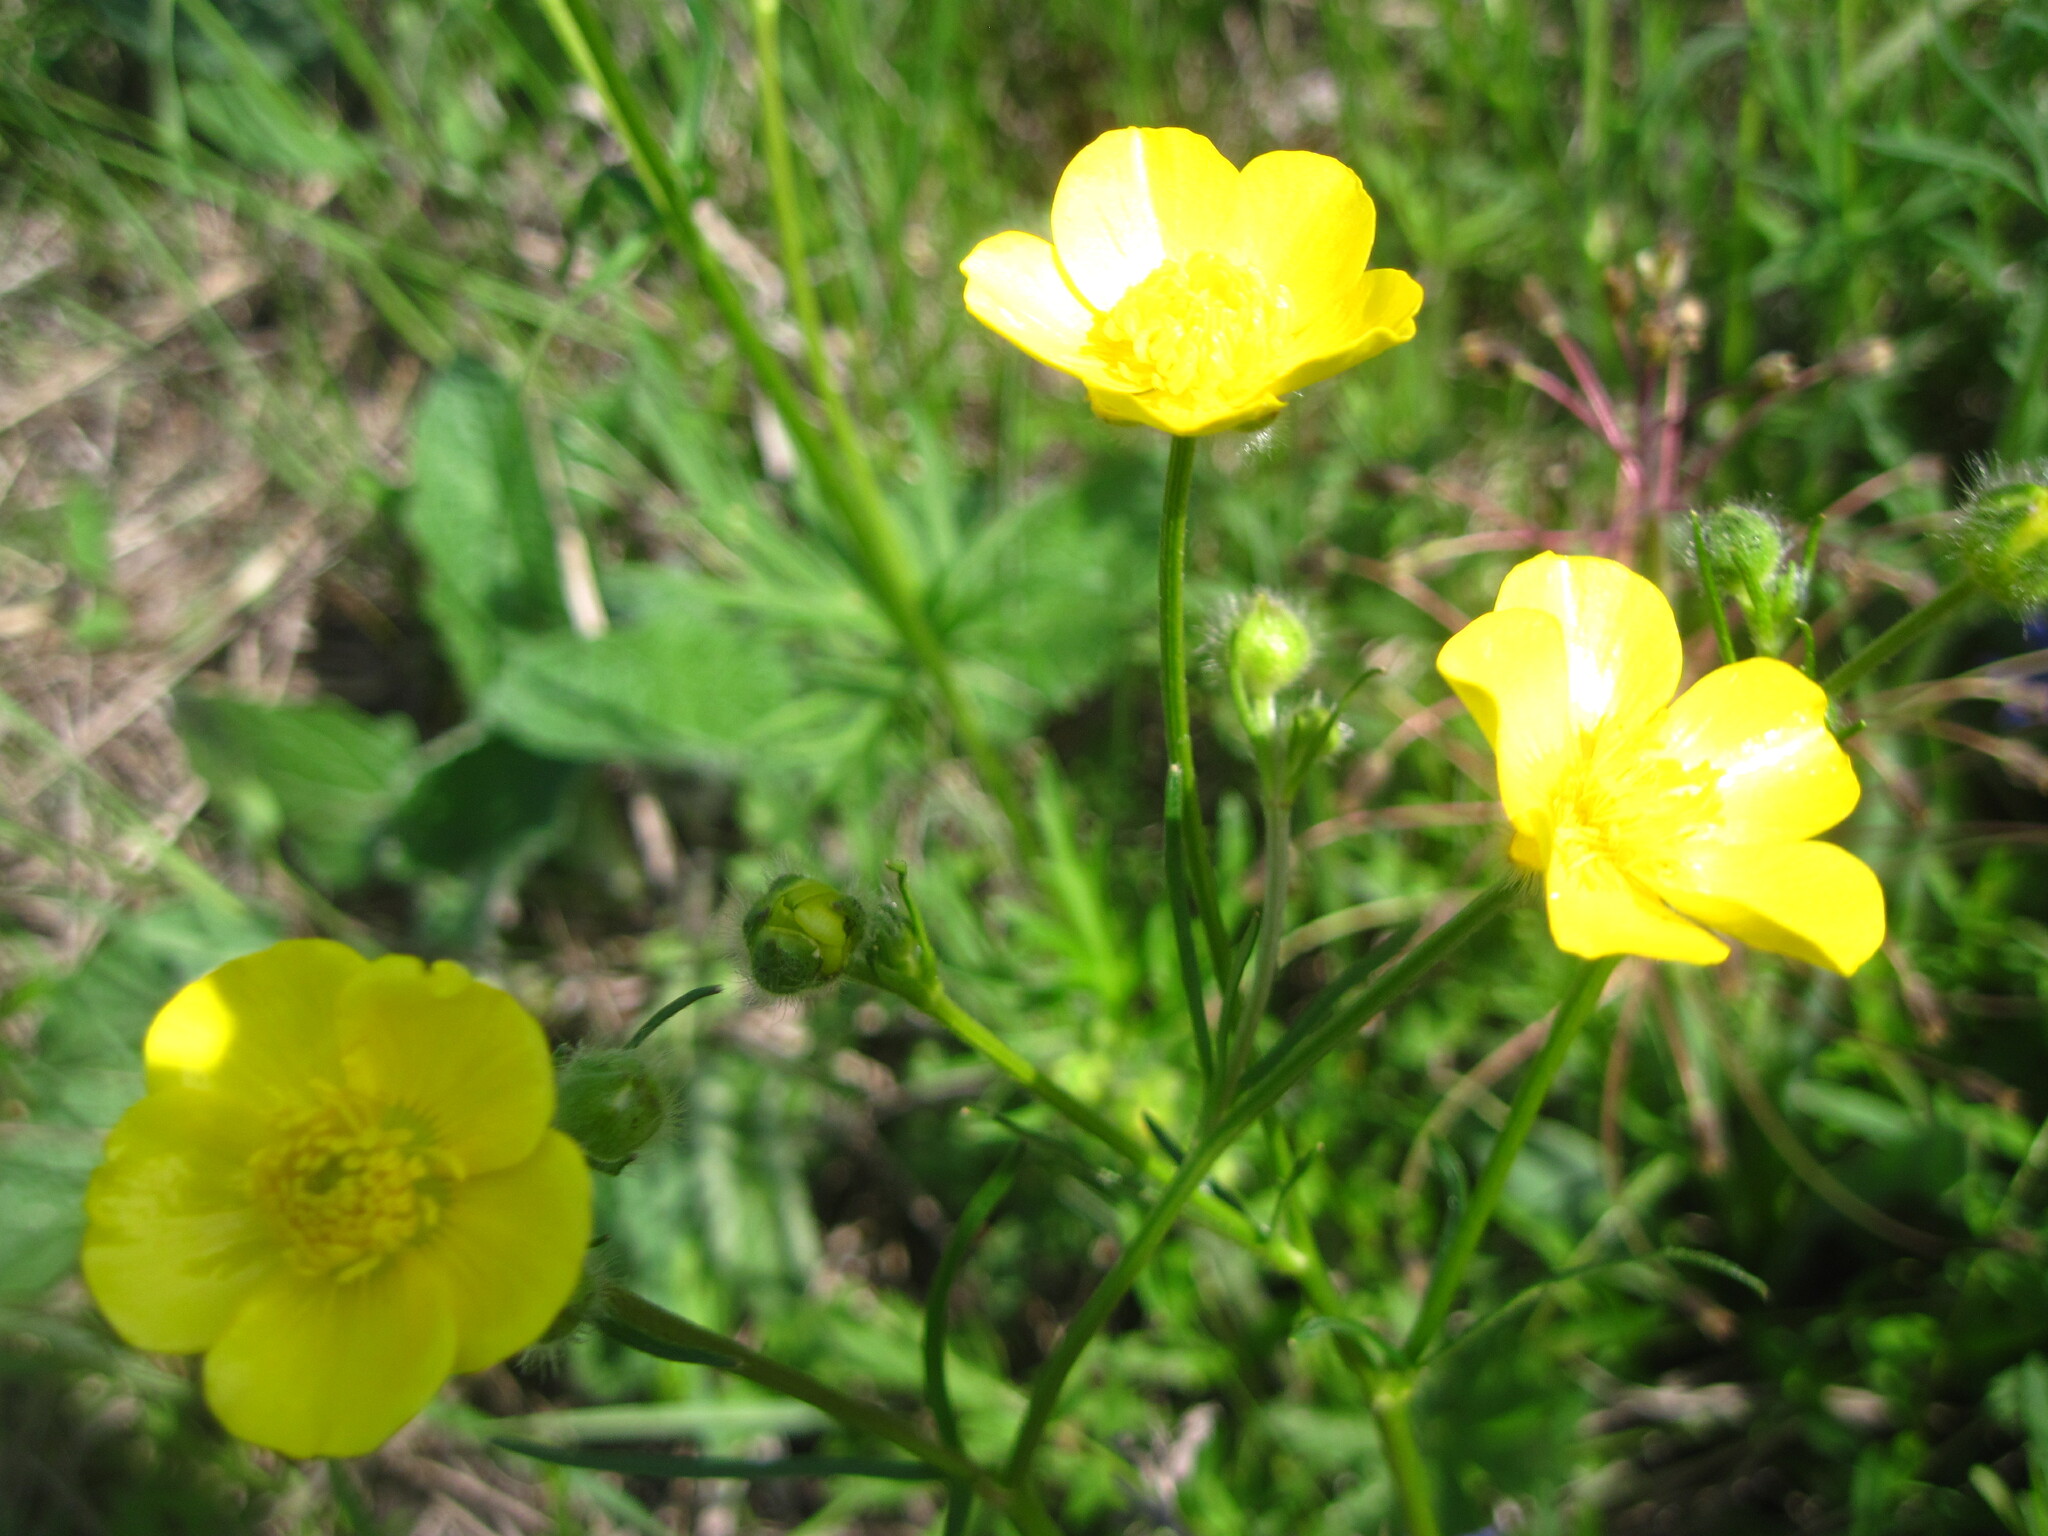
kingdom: Plantae
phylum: Tracheophyta
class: Magnoliopsida
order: Ranunculales
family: Ranunculaceae
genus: Ranunculus
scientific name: Ranunculus polyanthemos
